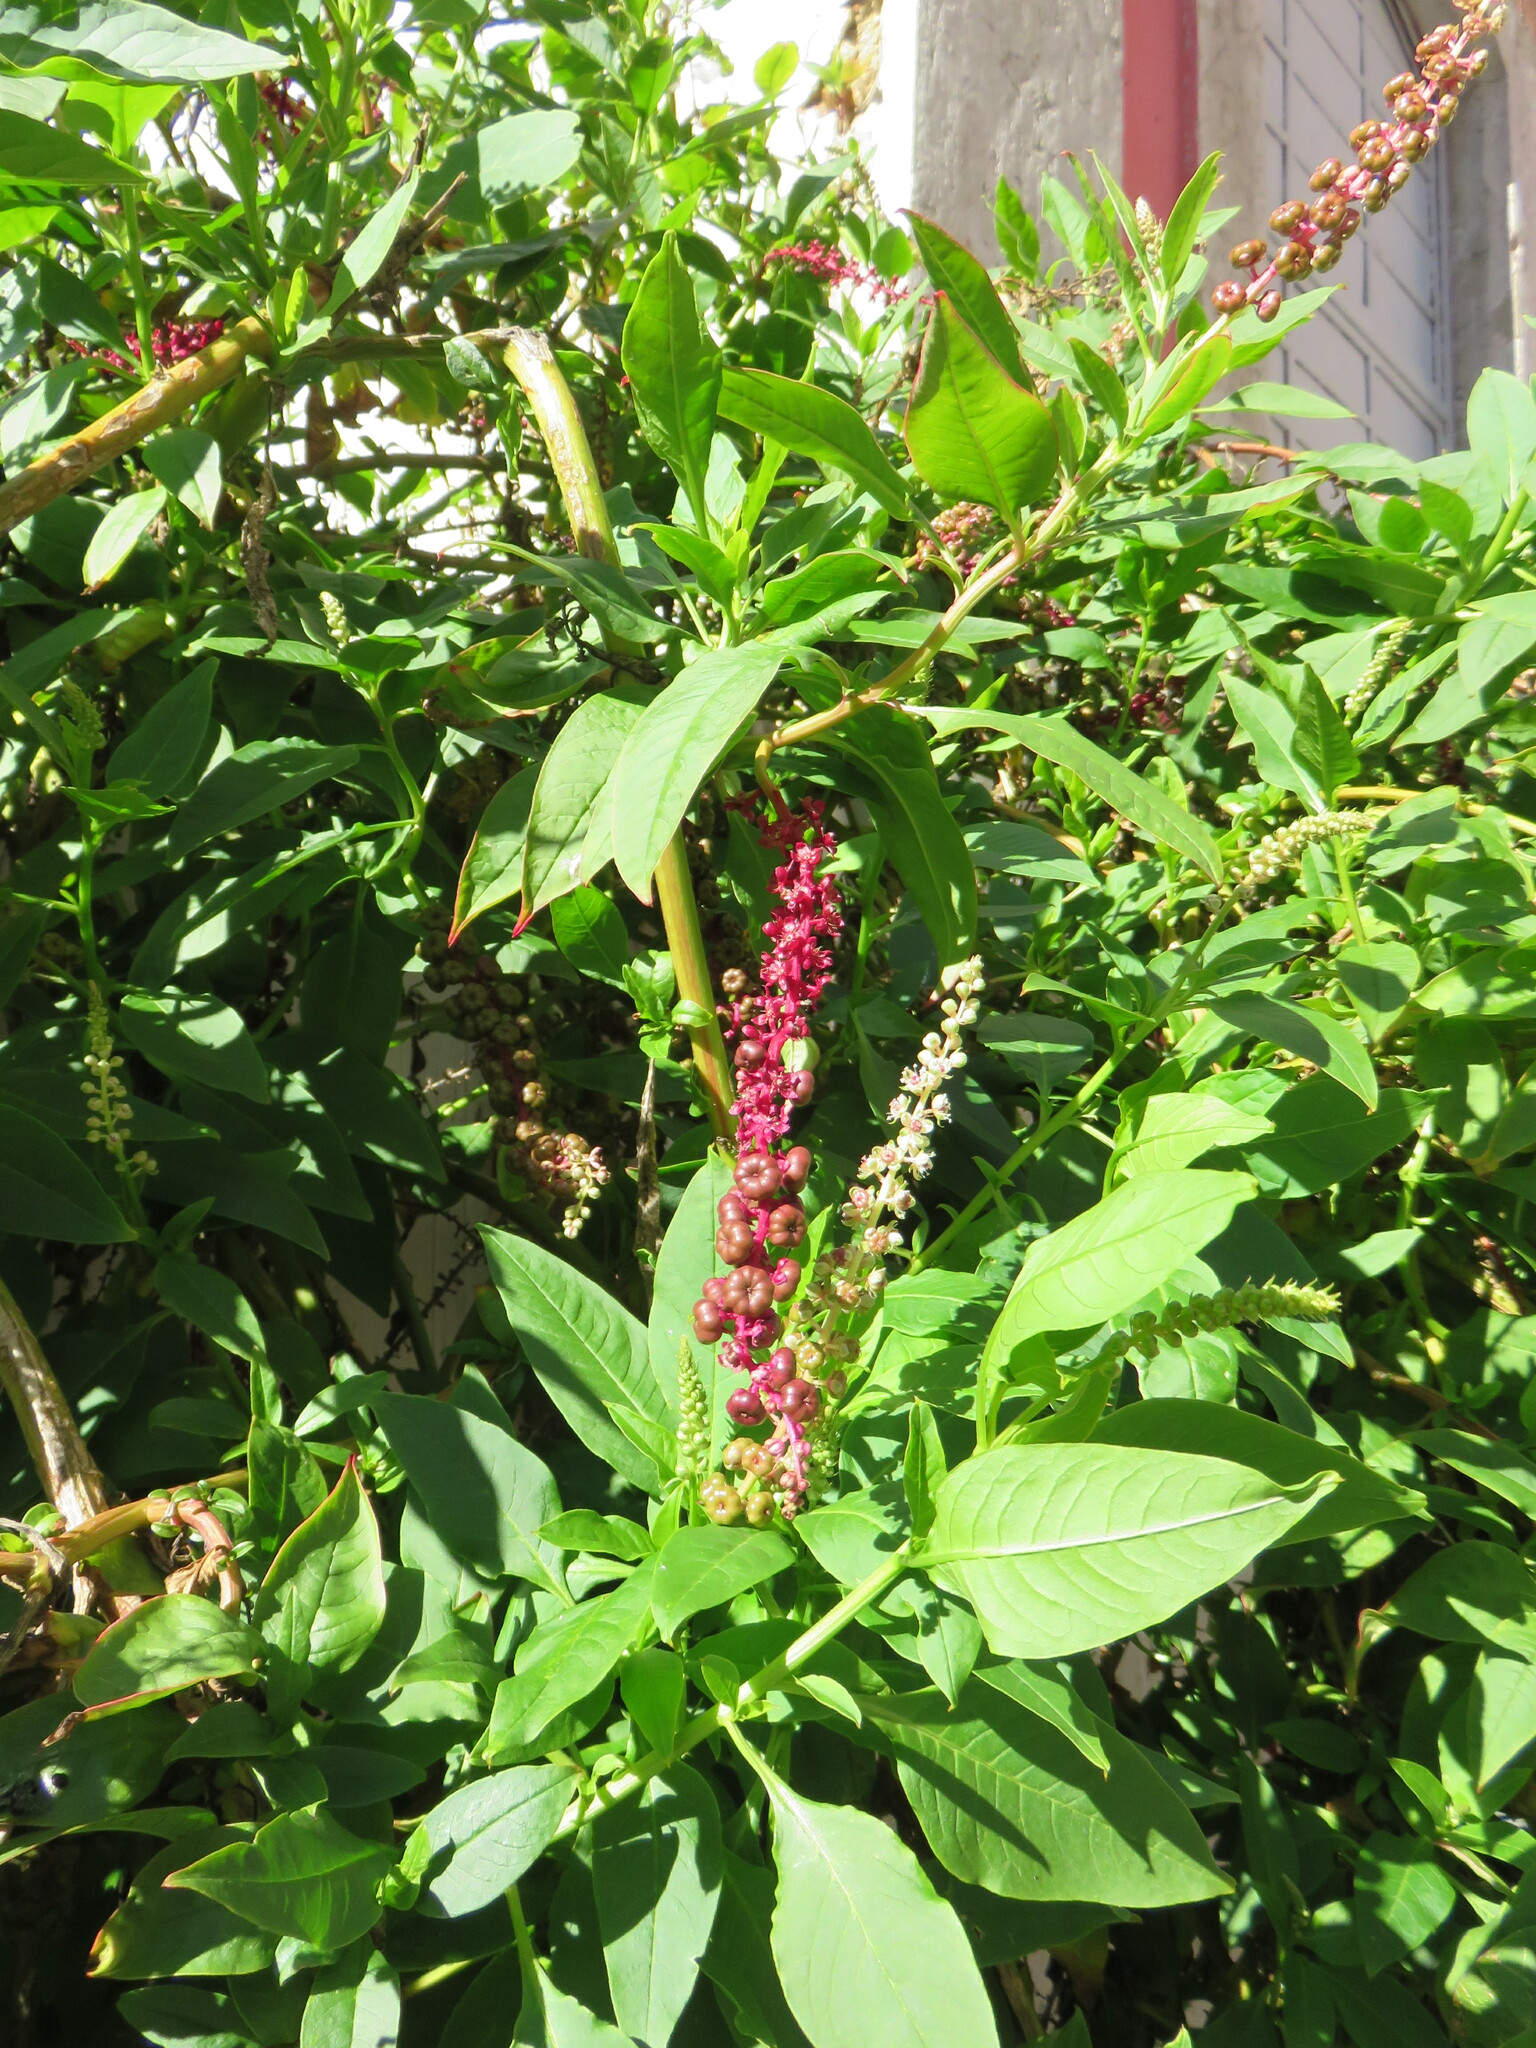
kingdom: Plantae
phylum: Tracheophyta
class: Magnoliopsida
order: Caryophyllales
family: Phytolaccaceae
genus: Phytolacca
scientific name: Phytolacca heterotepala
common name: Mexican pokeweed
